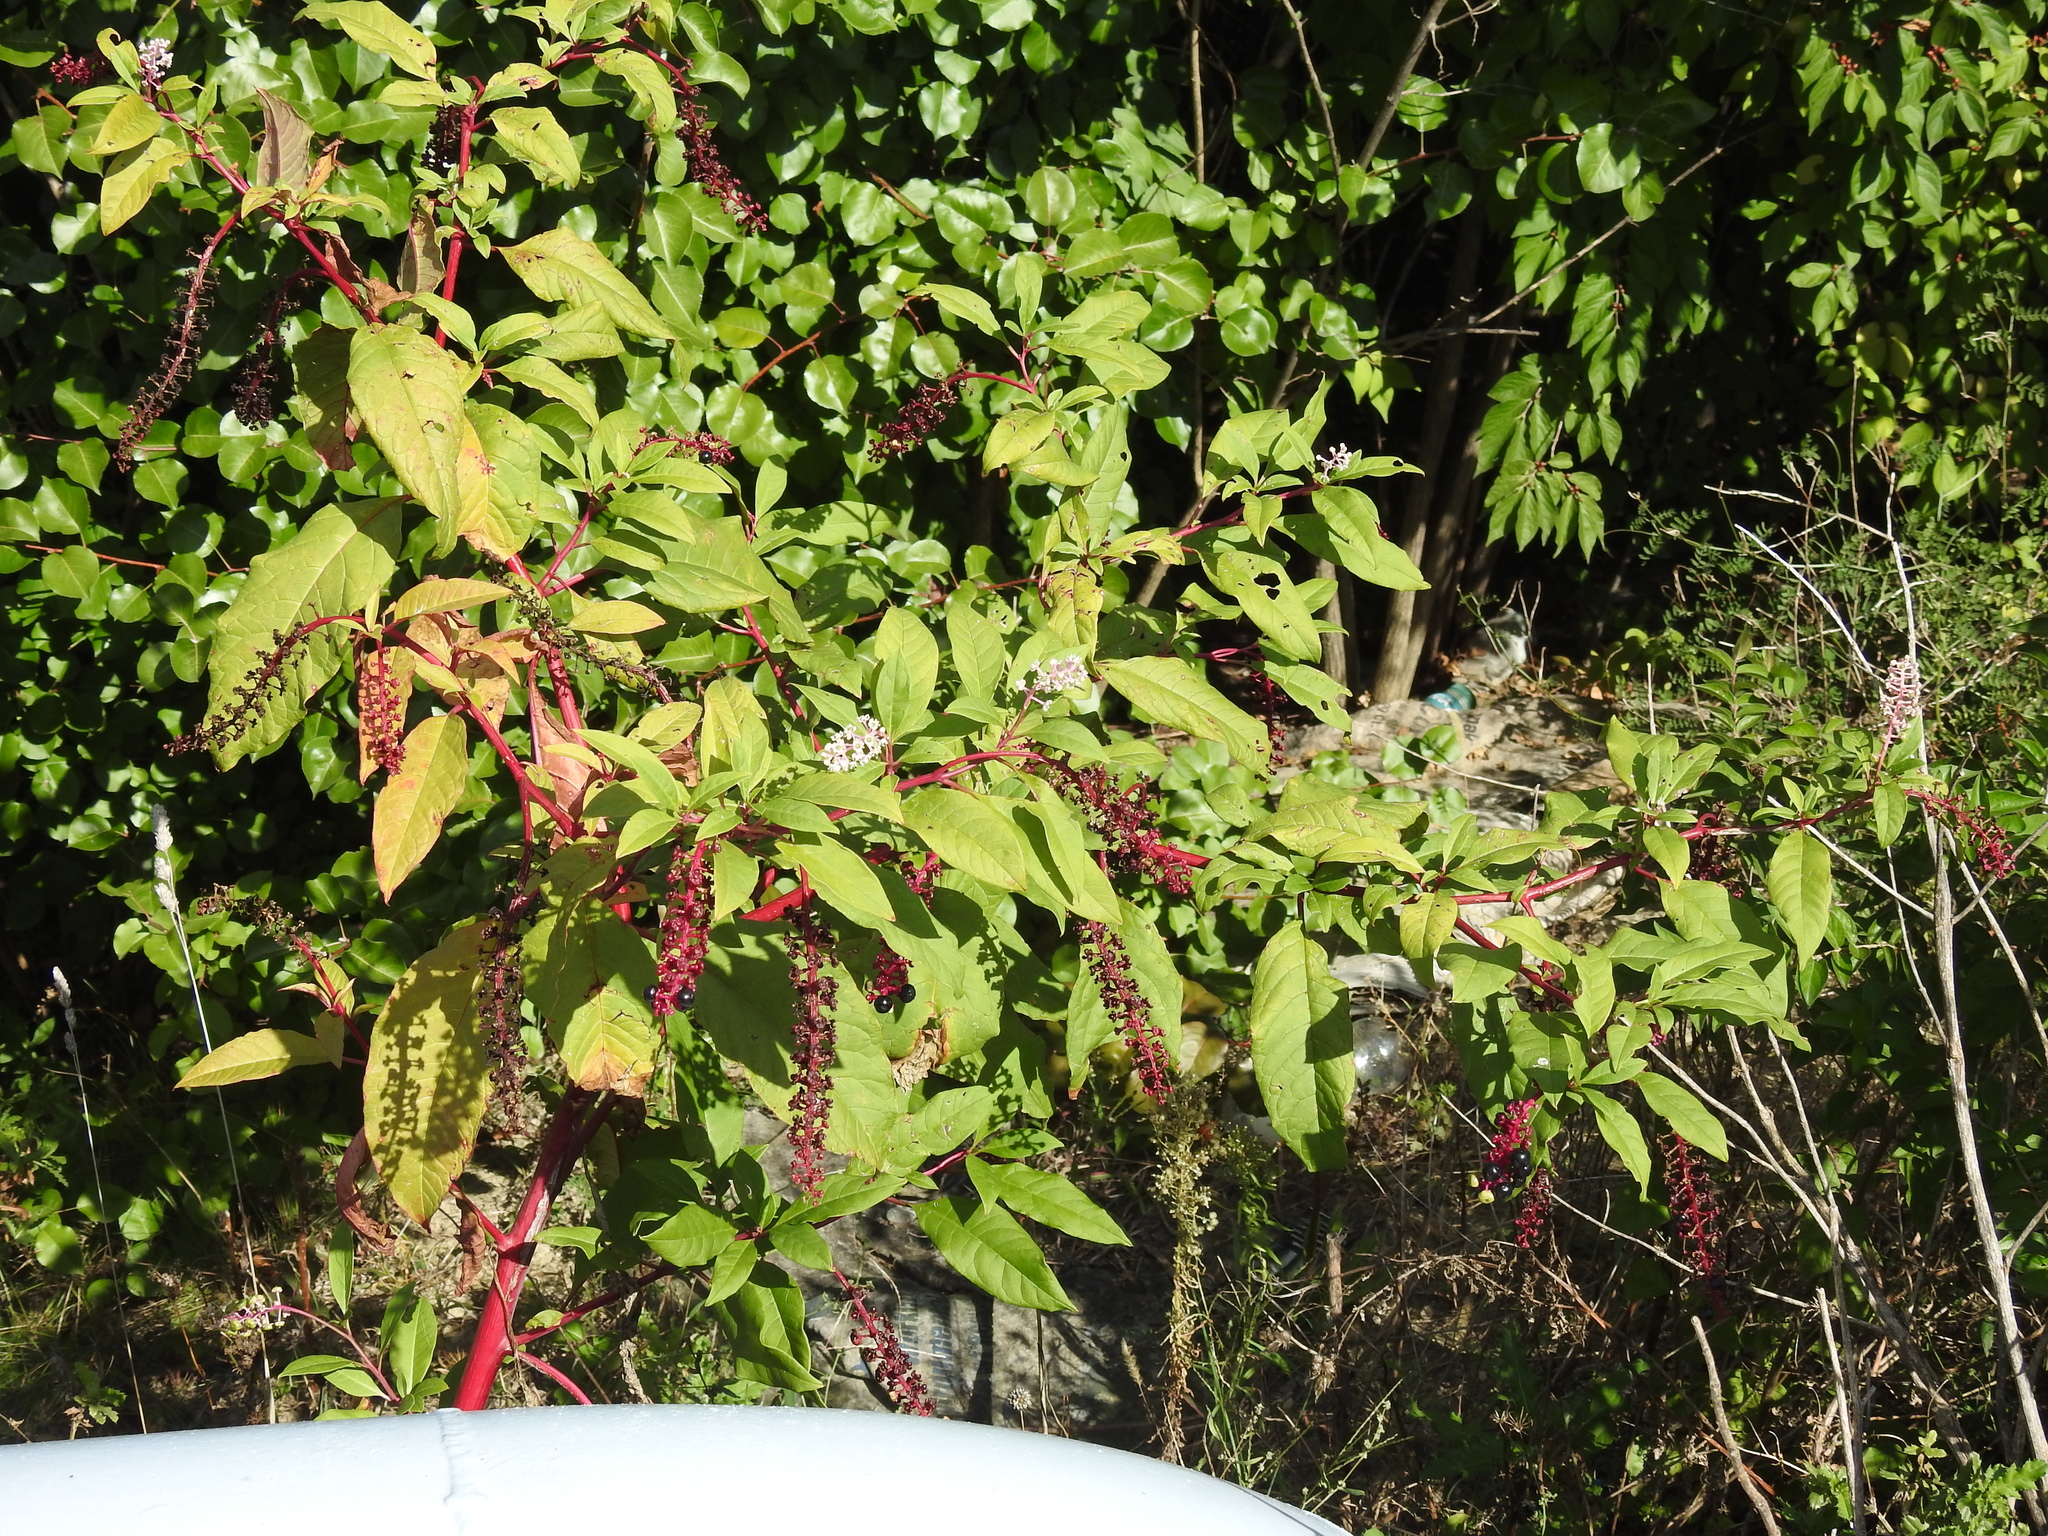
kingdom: Plantae
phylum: Tracheophyta
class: Magnoliopsida
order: Caryophyllales
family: Phytolaccaceae
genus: Phytolacca
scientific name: Phytolacca americana
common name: American pokeweed
